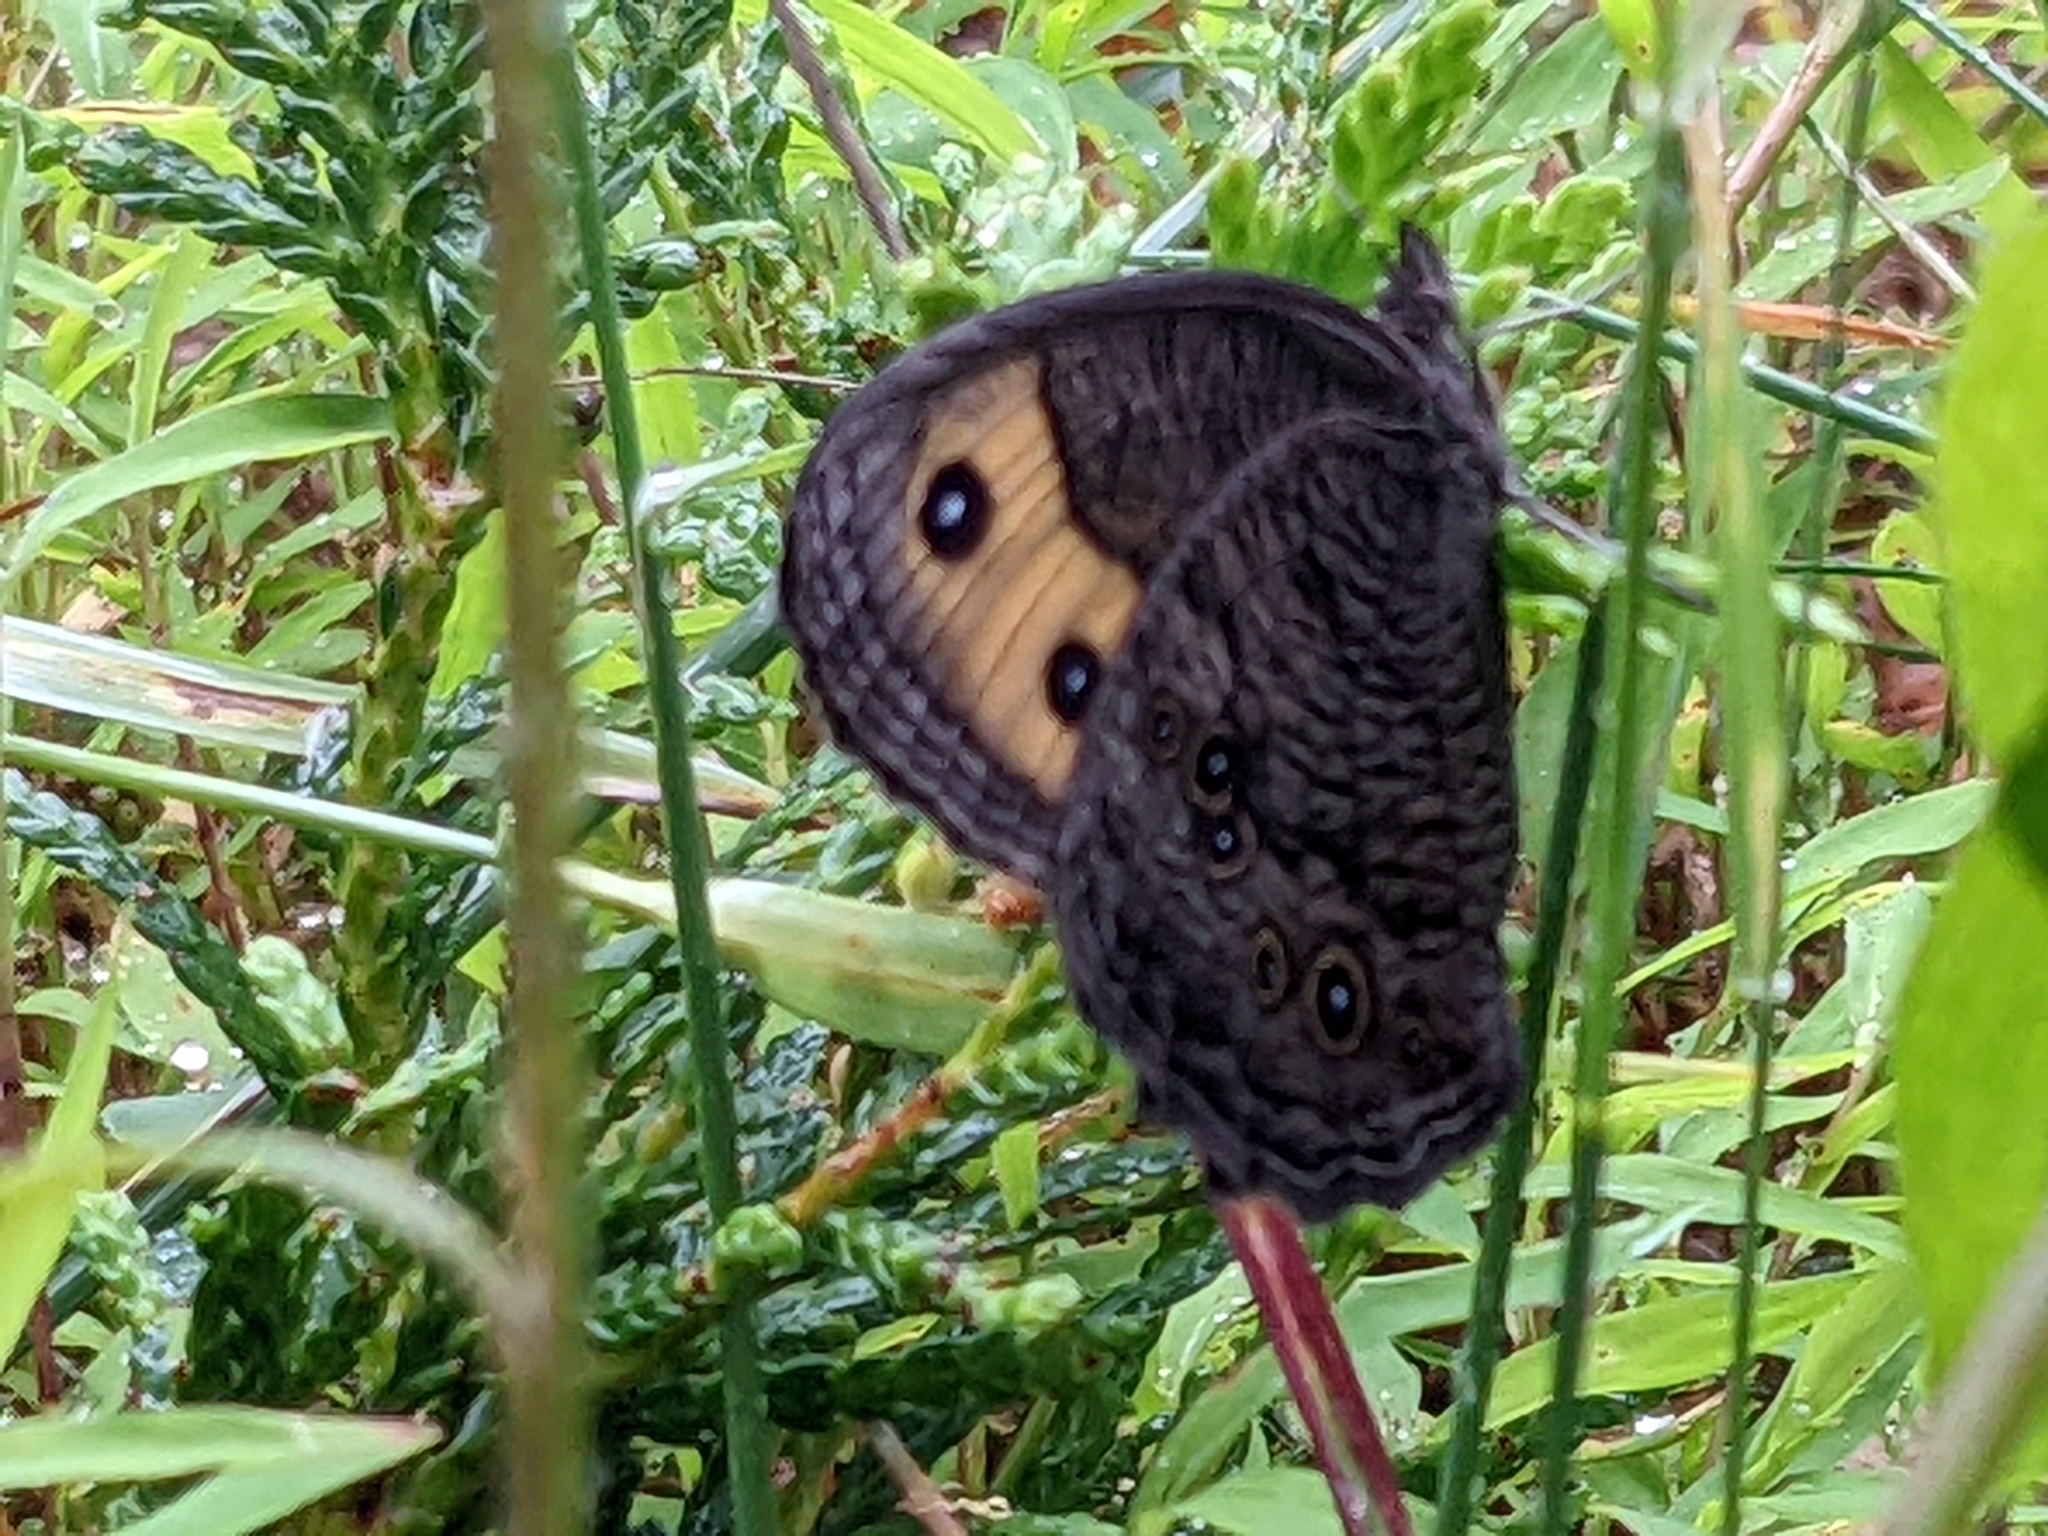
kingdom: Animalia
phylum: Arthropoda
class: Insecta
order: Lepidoptera
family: Nymphalidae
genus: Cercyonis
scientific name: Cercyonis pegala
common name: Common wood-nymph
